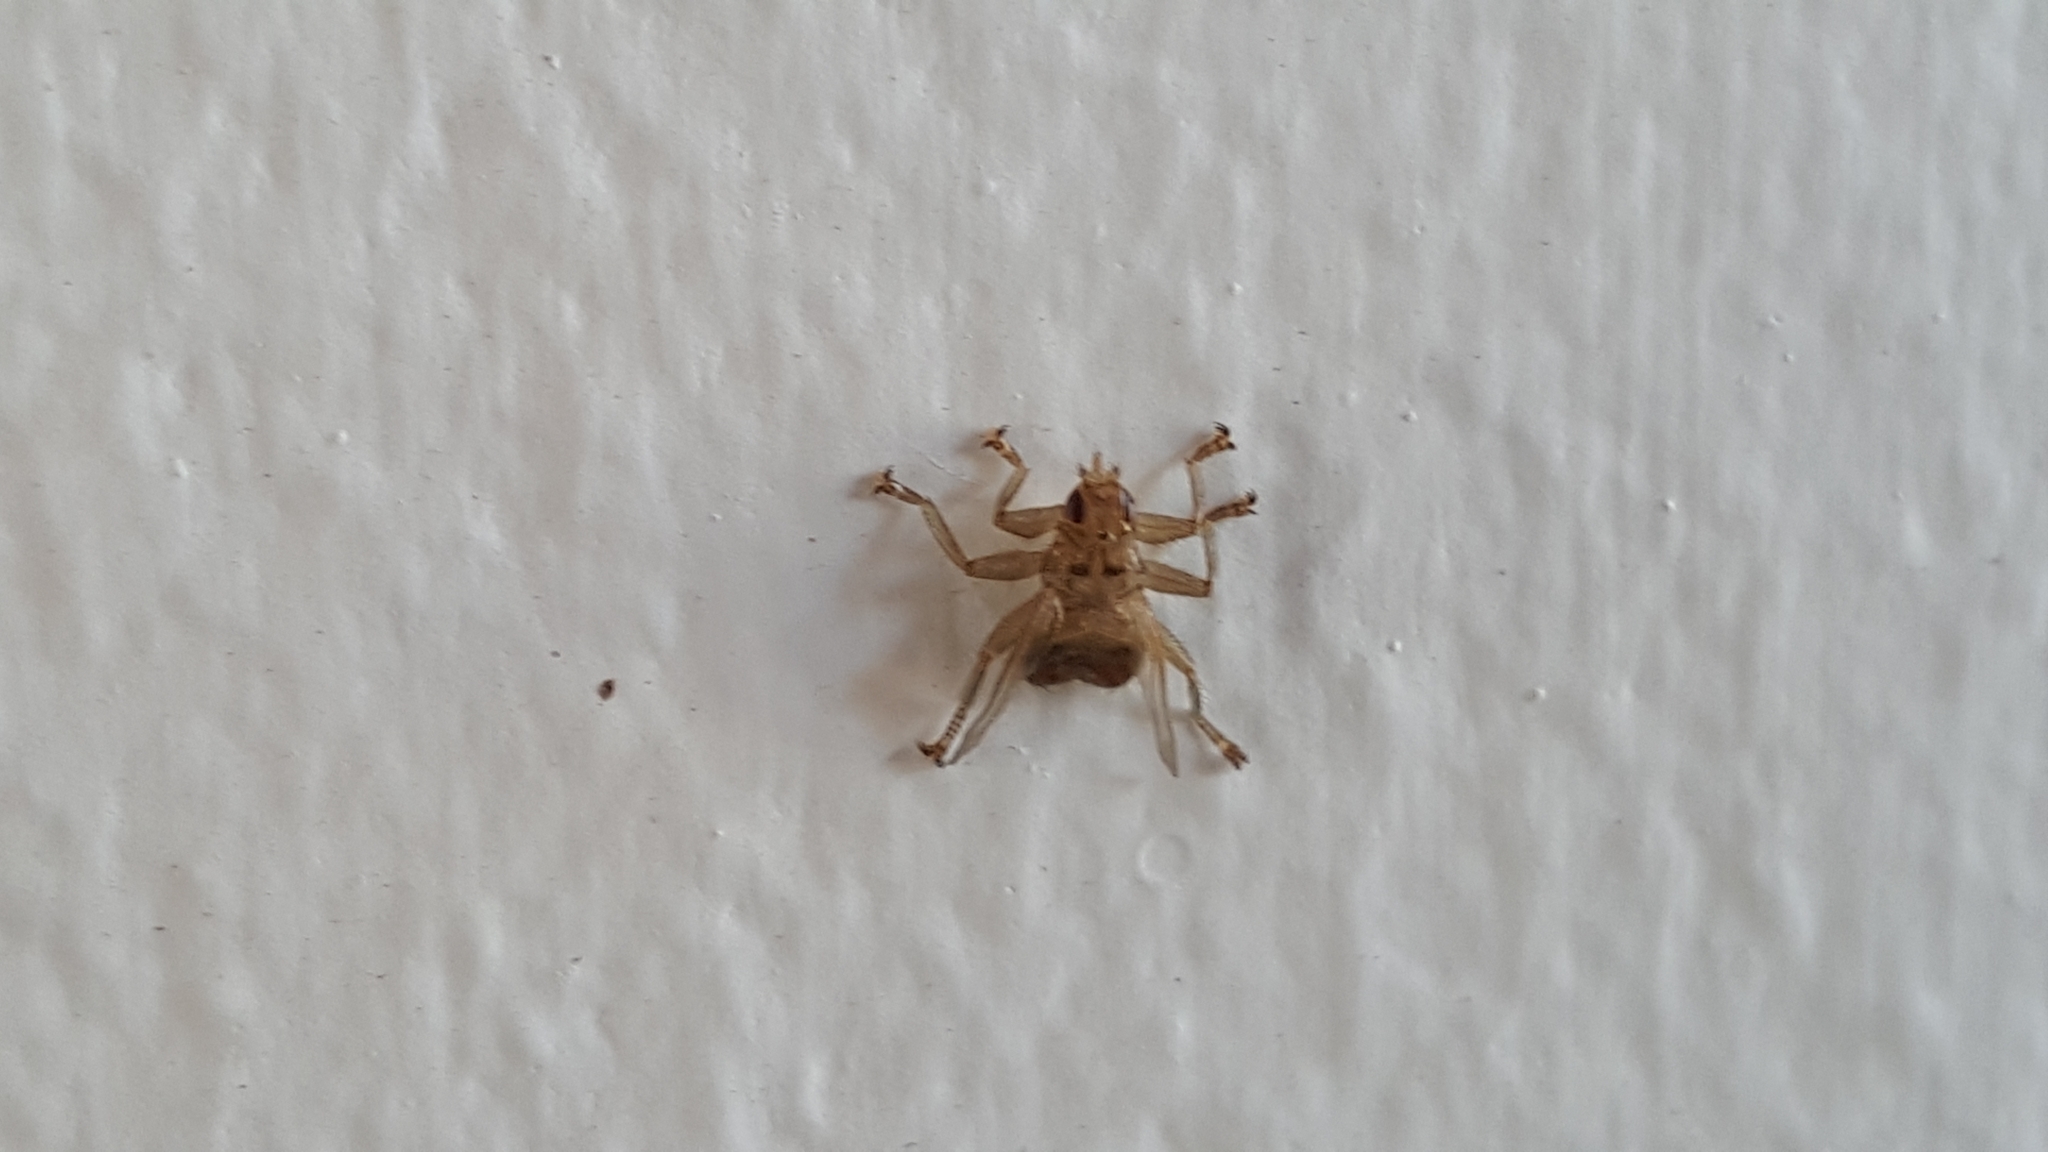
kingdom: Animalia
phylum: Arthropoda
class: Insecta
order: Diptera
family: Hippoboscidae
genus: Crataerina
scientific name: Crataerina hirundinis
